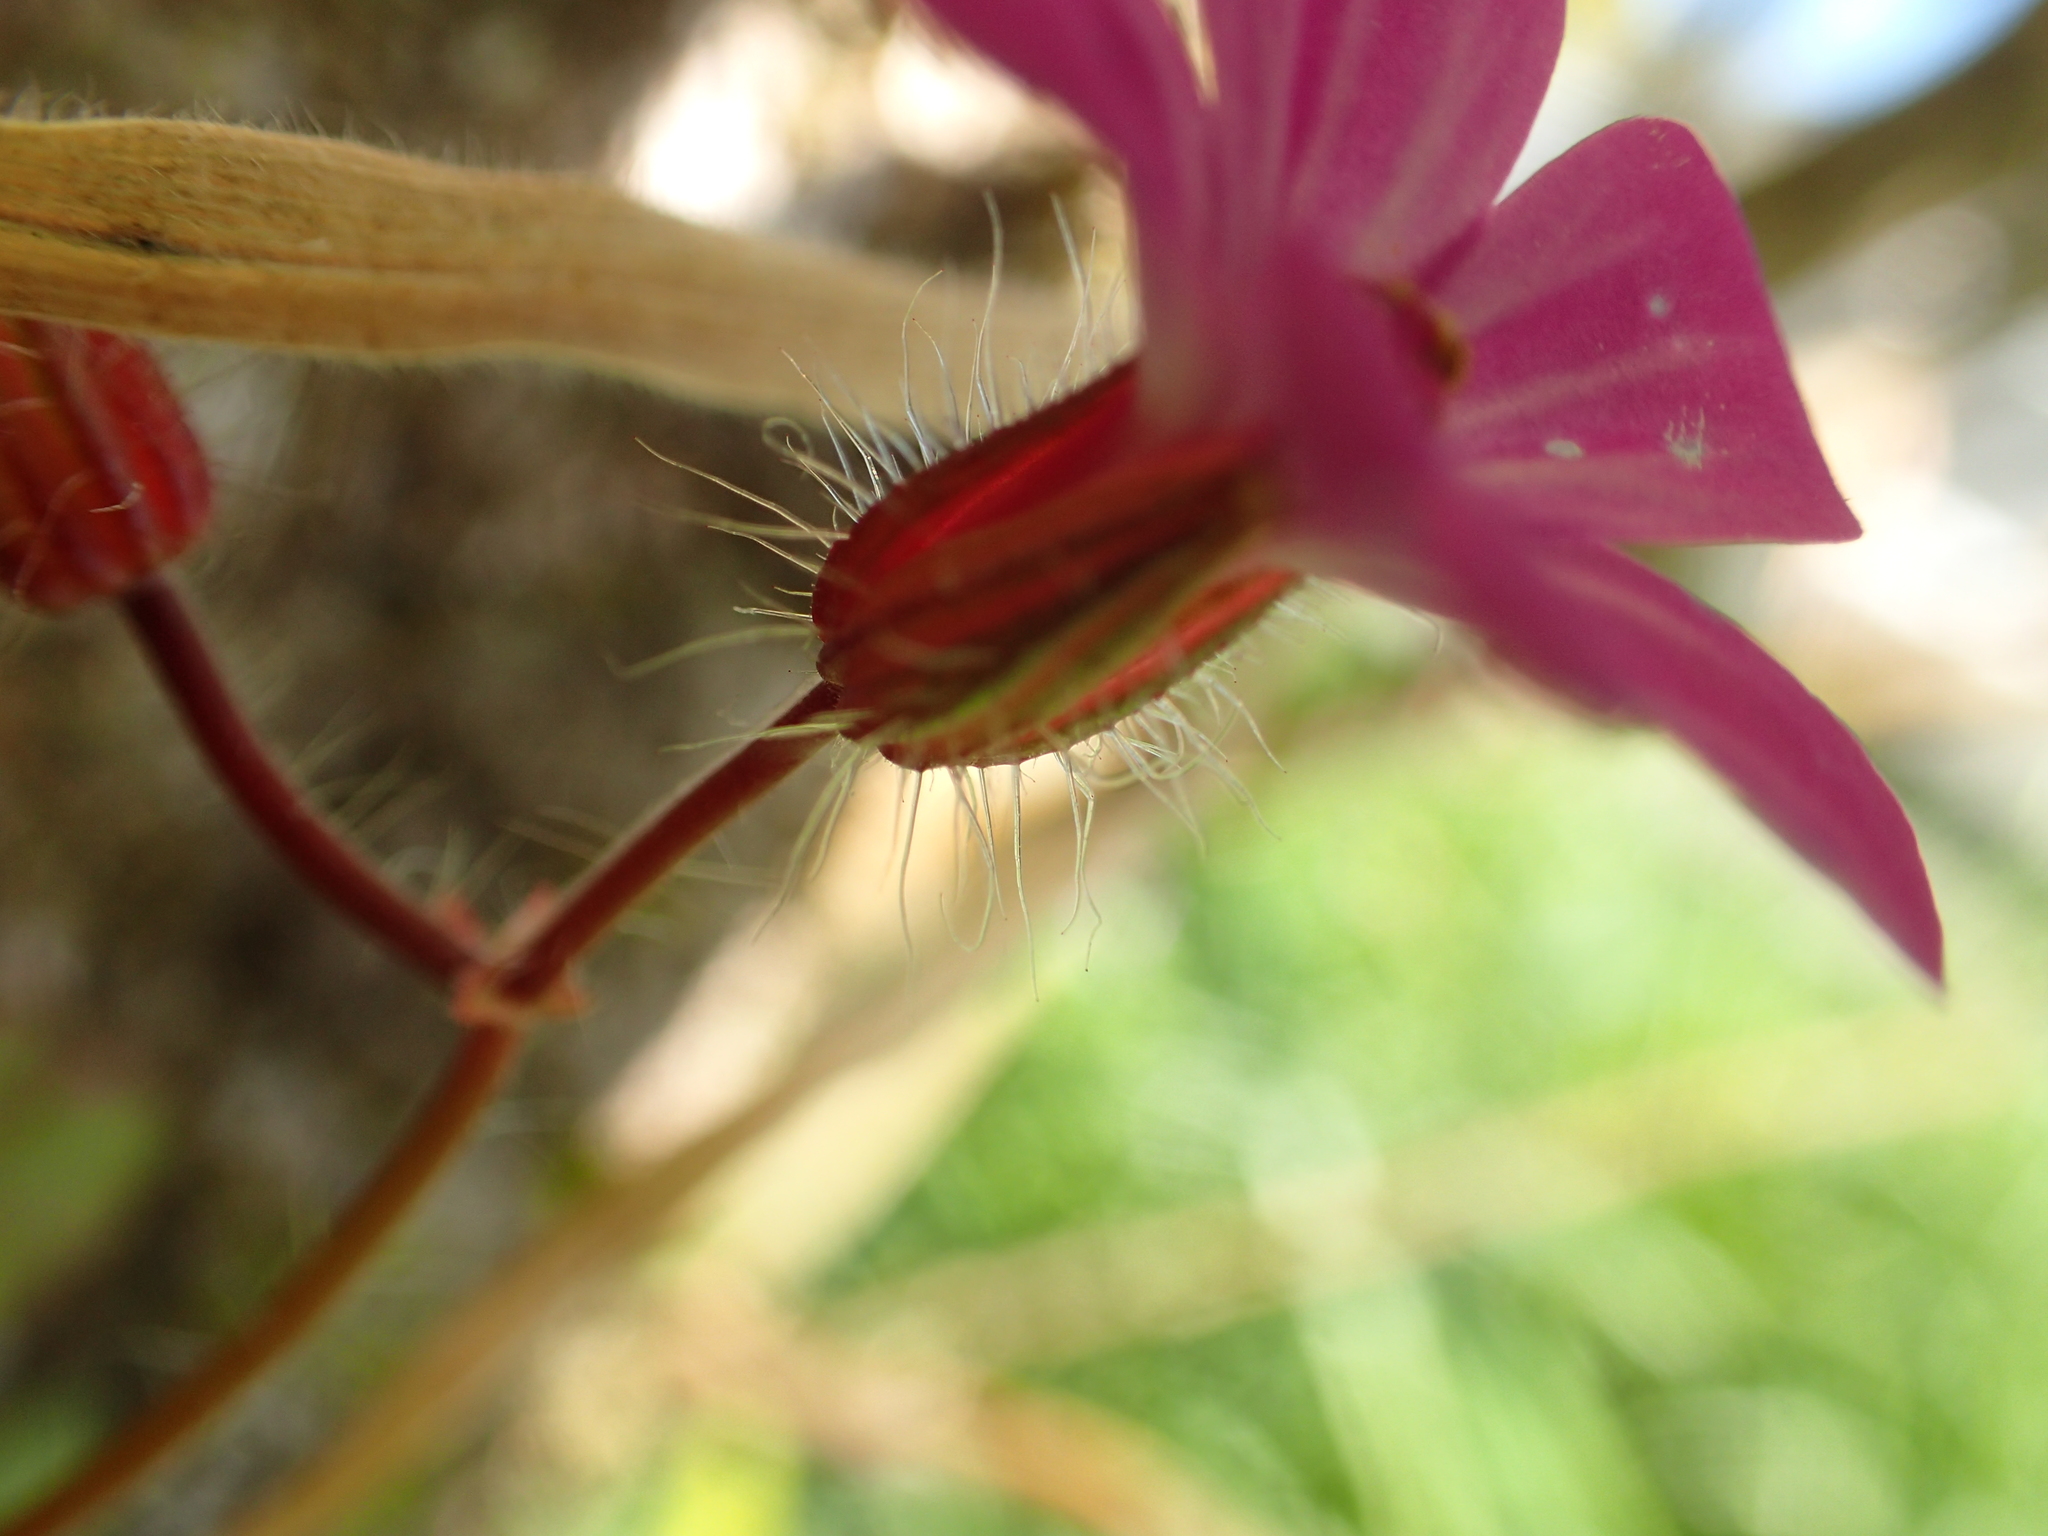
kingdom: Plantae
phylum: Tracheophyta
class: Magnoliopsida
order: Geraniales
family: Geraniaceae
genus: Geranium
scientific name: Geranium robertianum
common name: Herb-robert
